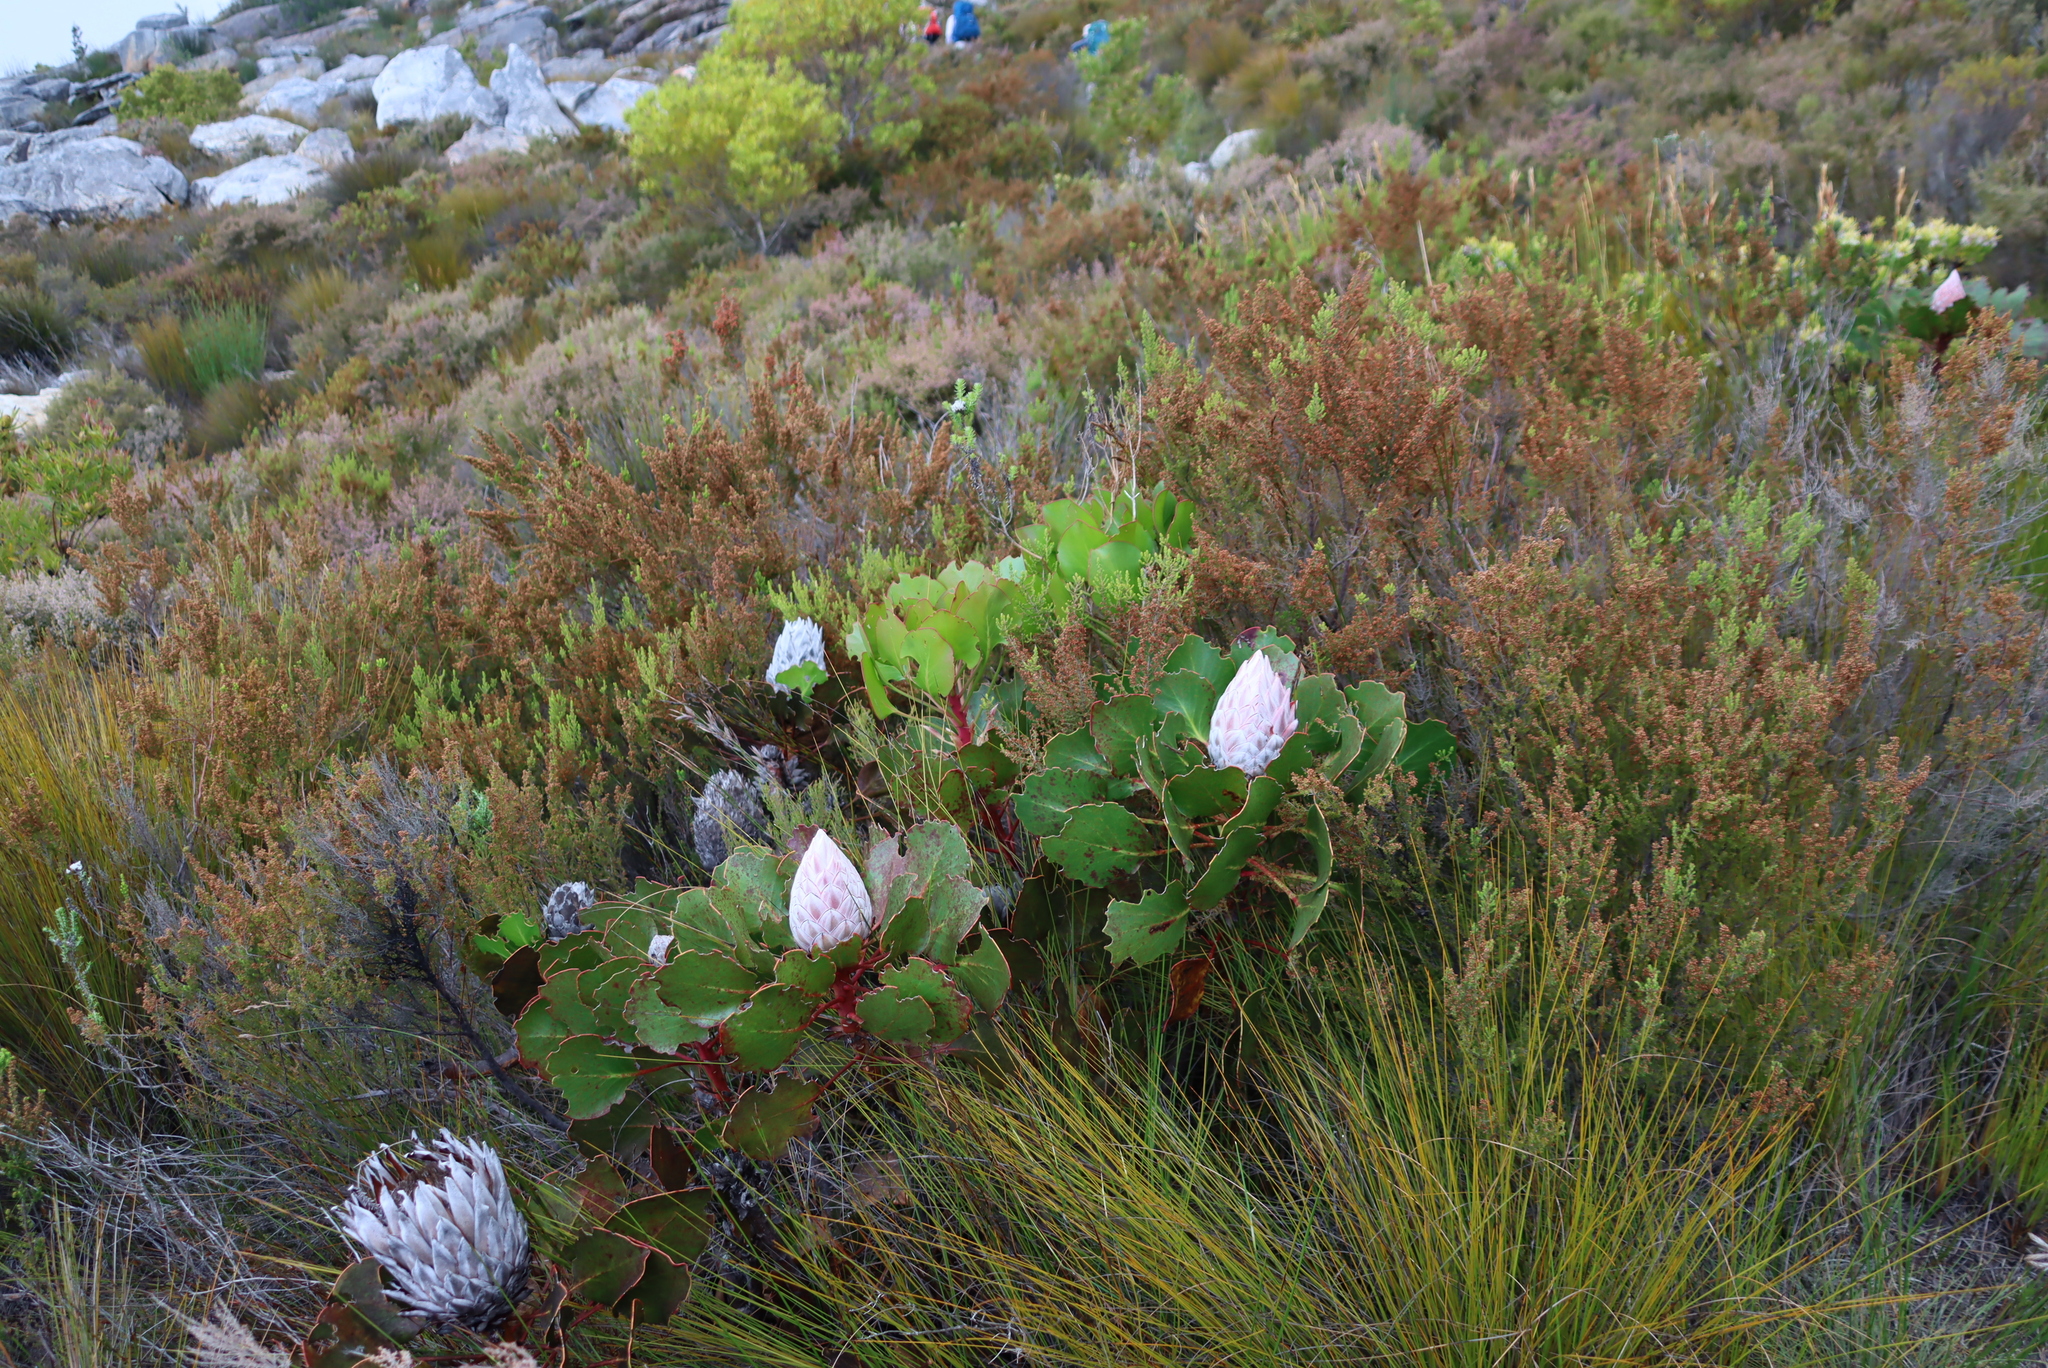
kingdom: Plantae
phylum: Tracheophyta
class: Magnoliopsida
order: Proteales
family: Proteaceae
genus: Protea
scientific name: Protea cynaroides
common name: King protea
